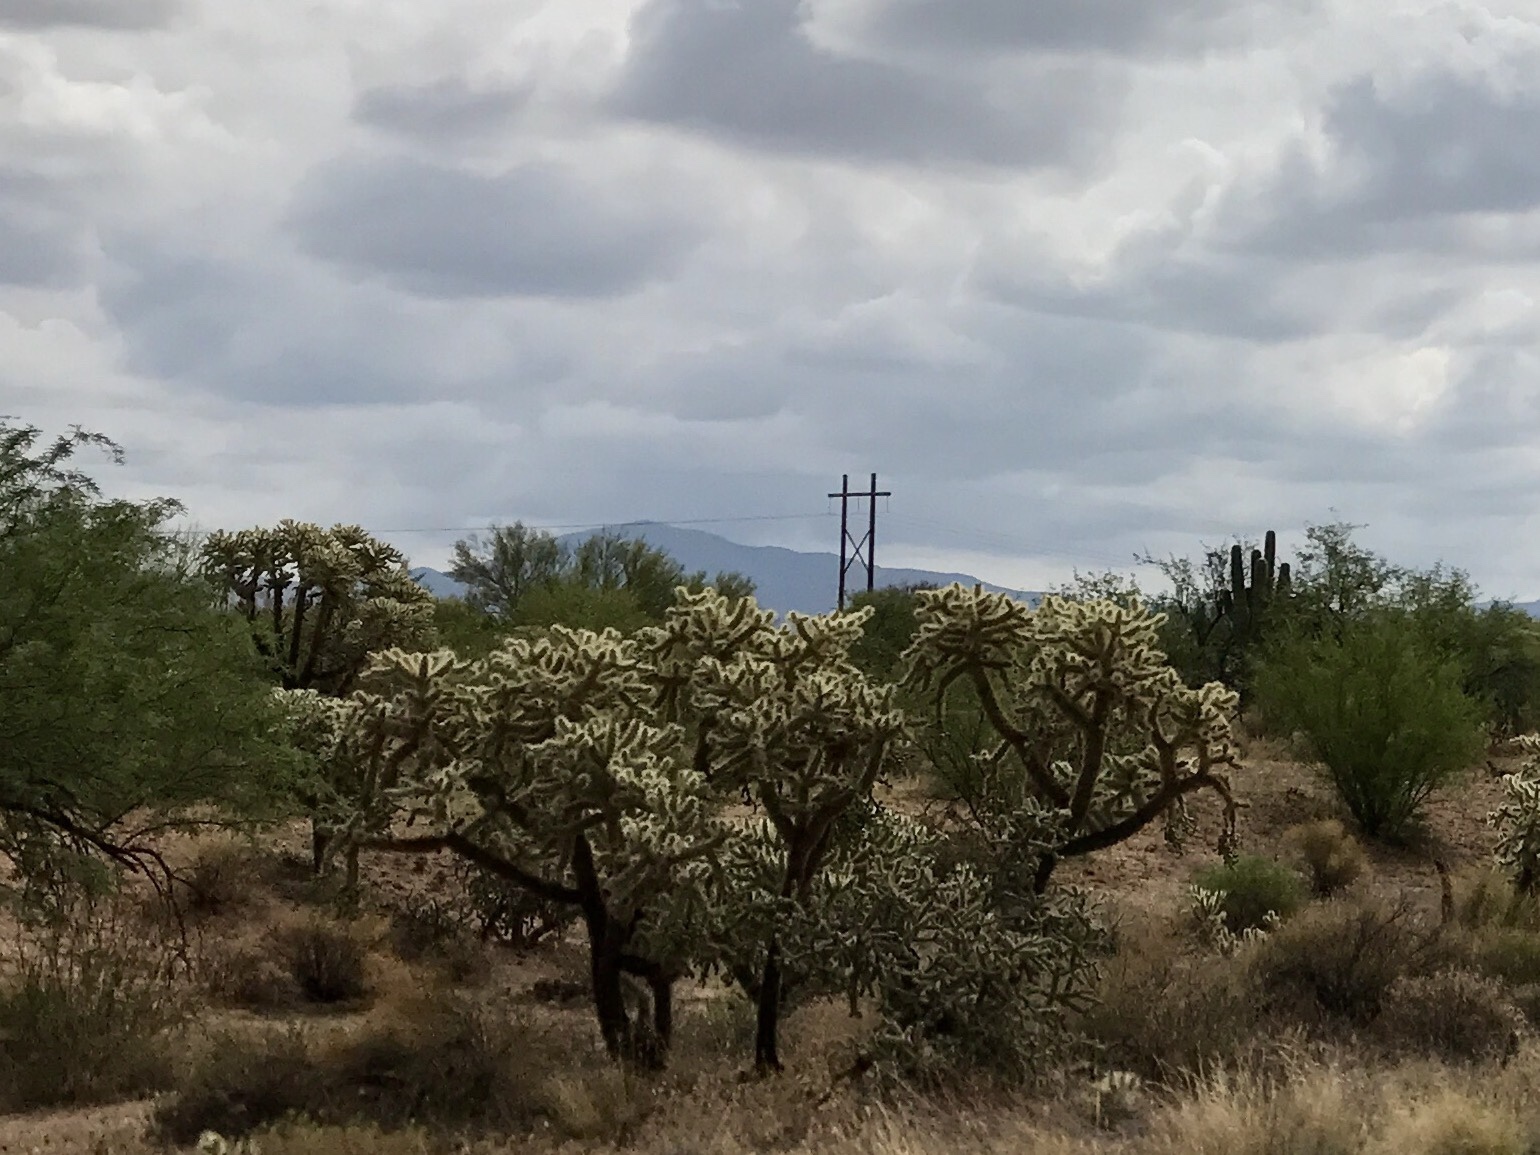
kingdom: Plantae
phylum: Tracheophyta
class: Magnoliopsida
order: Caryophyllales
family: Cactaceae
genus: Cylindropuntia
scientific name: Cylindropuntia fulgida
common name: Jumping cholla
